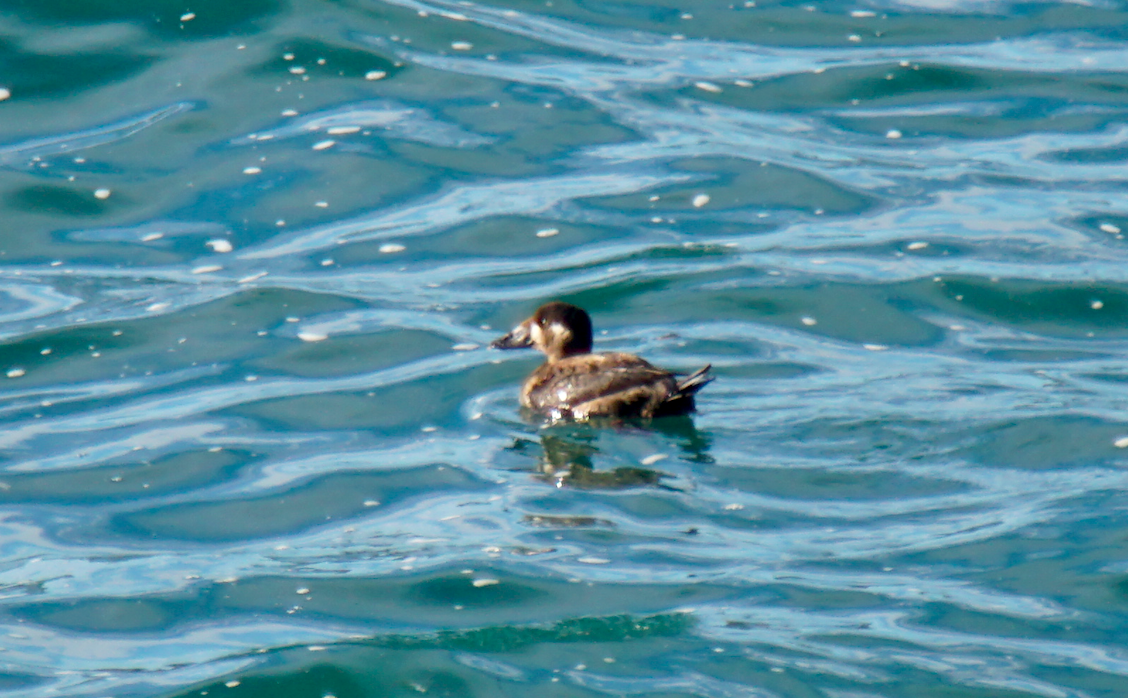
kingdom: Animalia
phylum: Chordata
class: Aves
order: Anseriformes
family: Anatidae
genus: Melanitta
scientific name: Melanitta perspicillata
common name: Surf scoter
